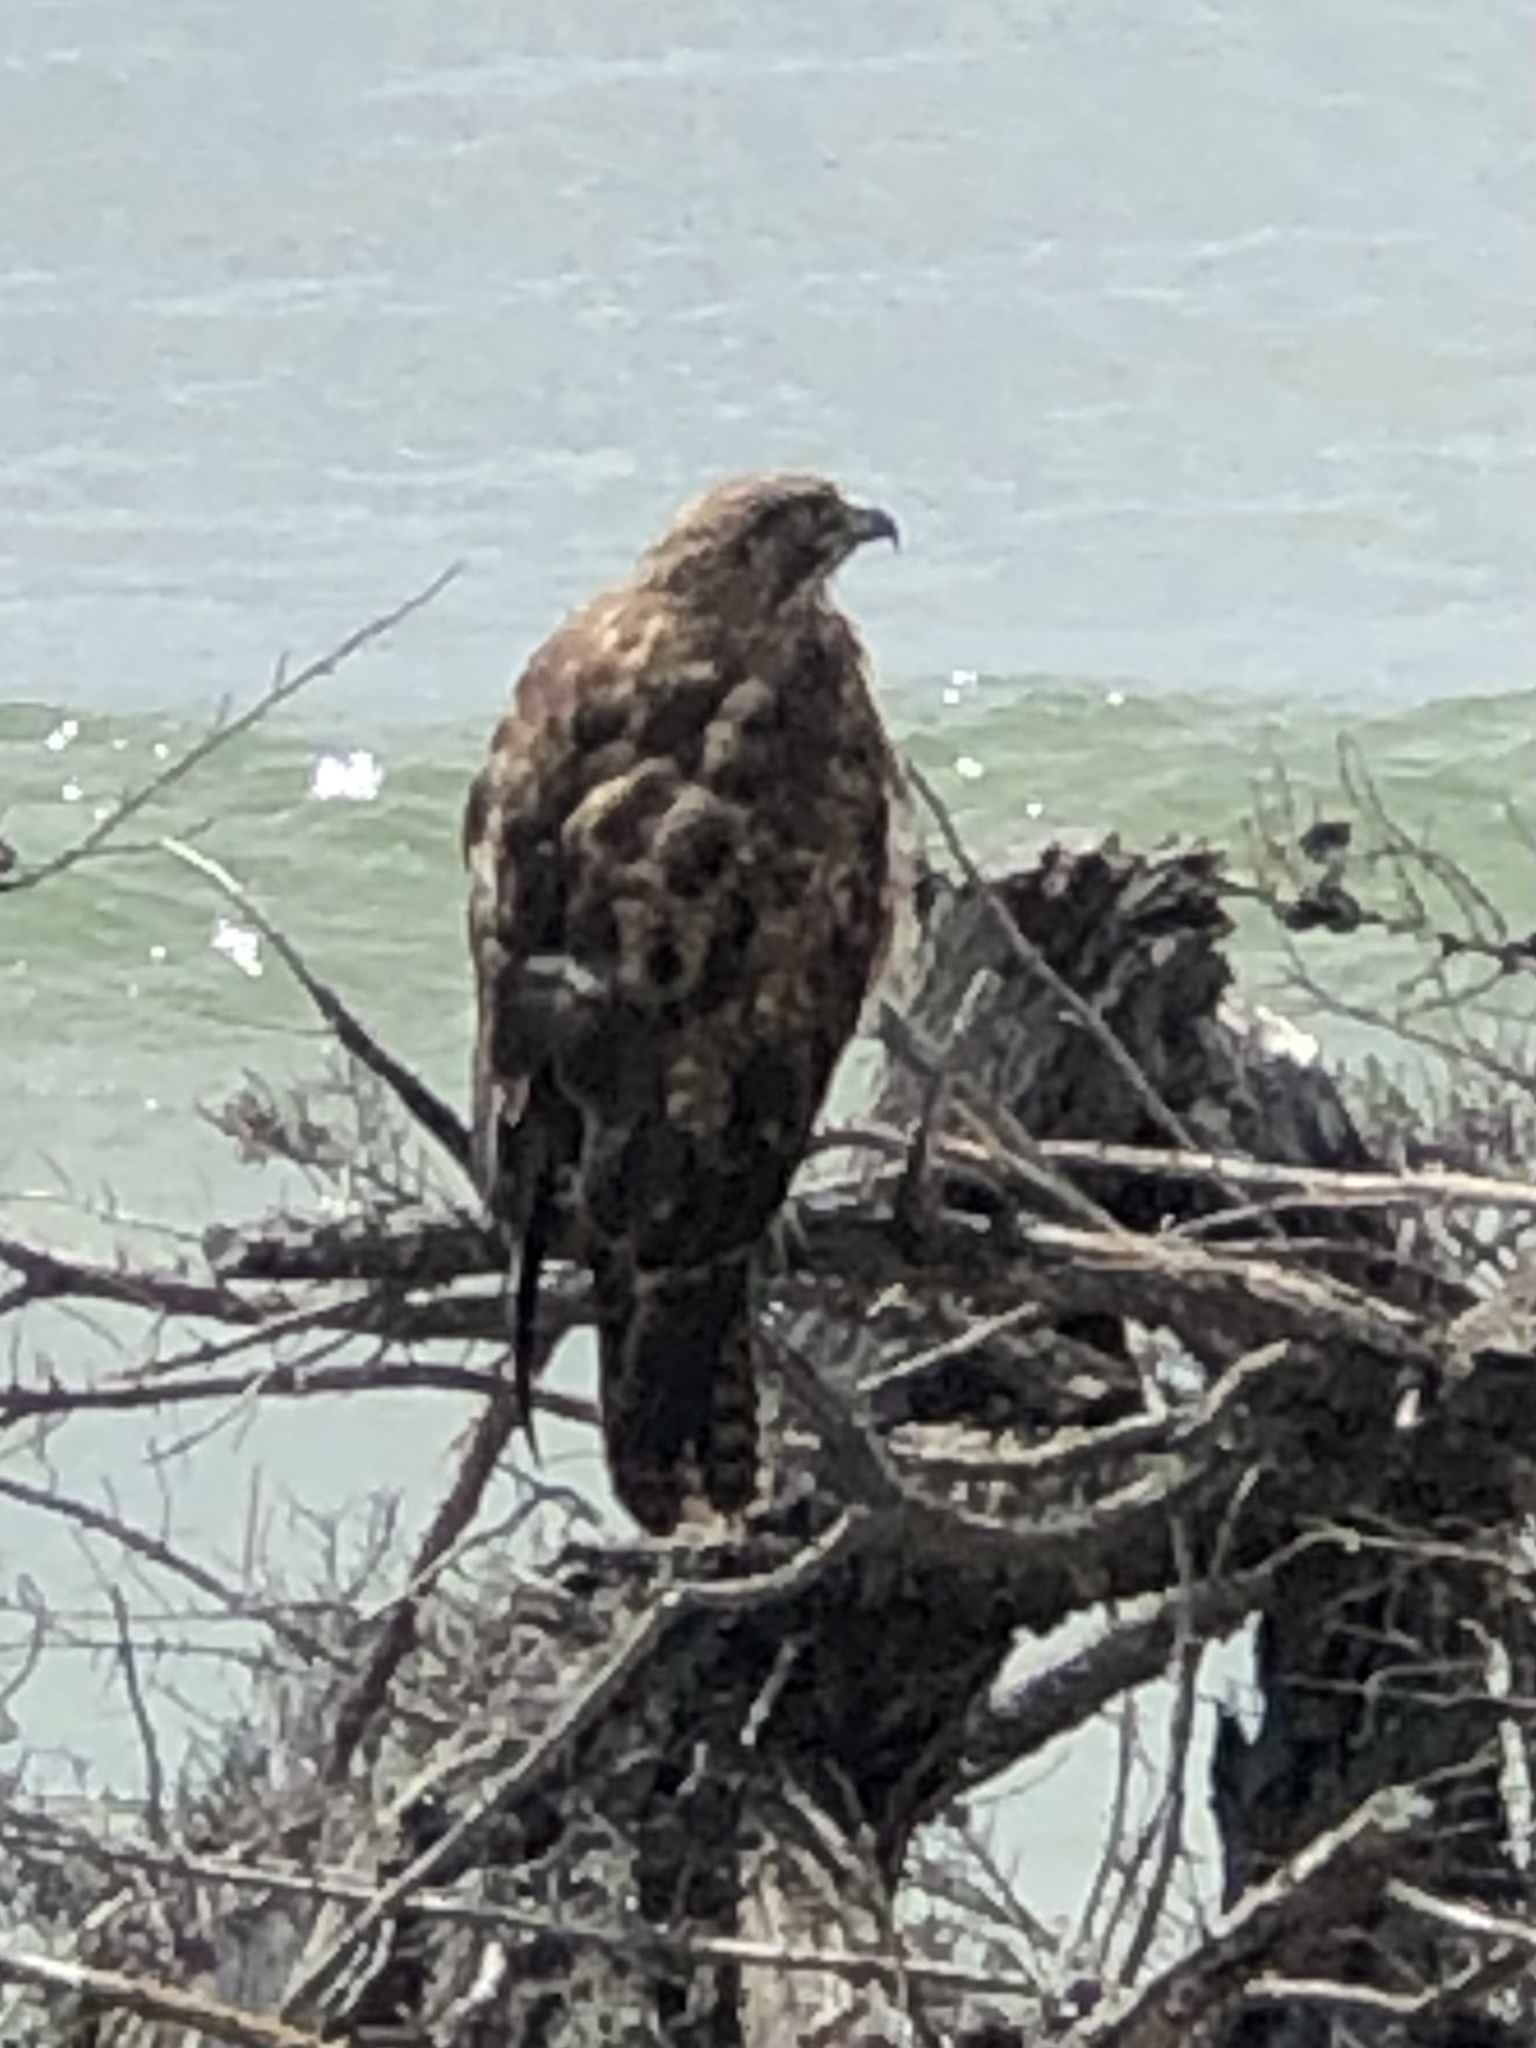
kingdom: Animalia
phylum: Chordata
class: Aves
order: Accipitriformes
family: Accipitridae
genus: Buteo
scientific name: Buteo jamaicensis
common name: Red-tailed hawk
